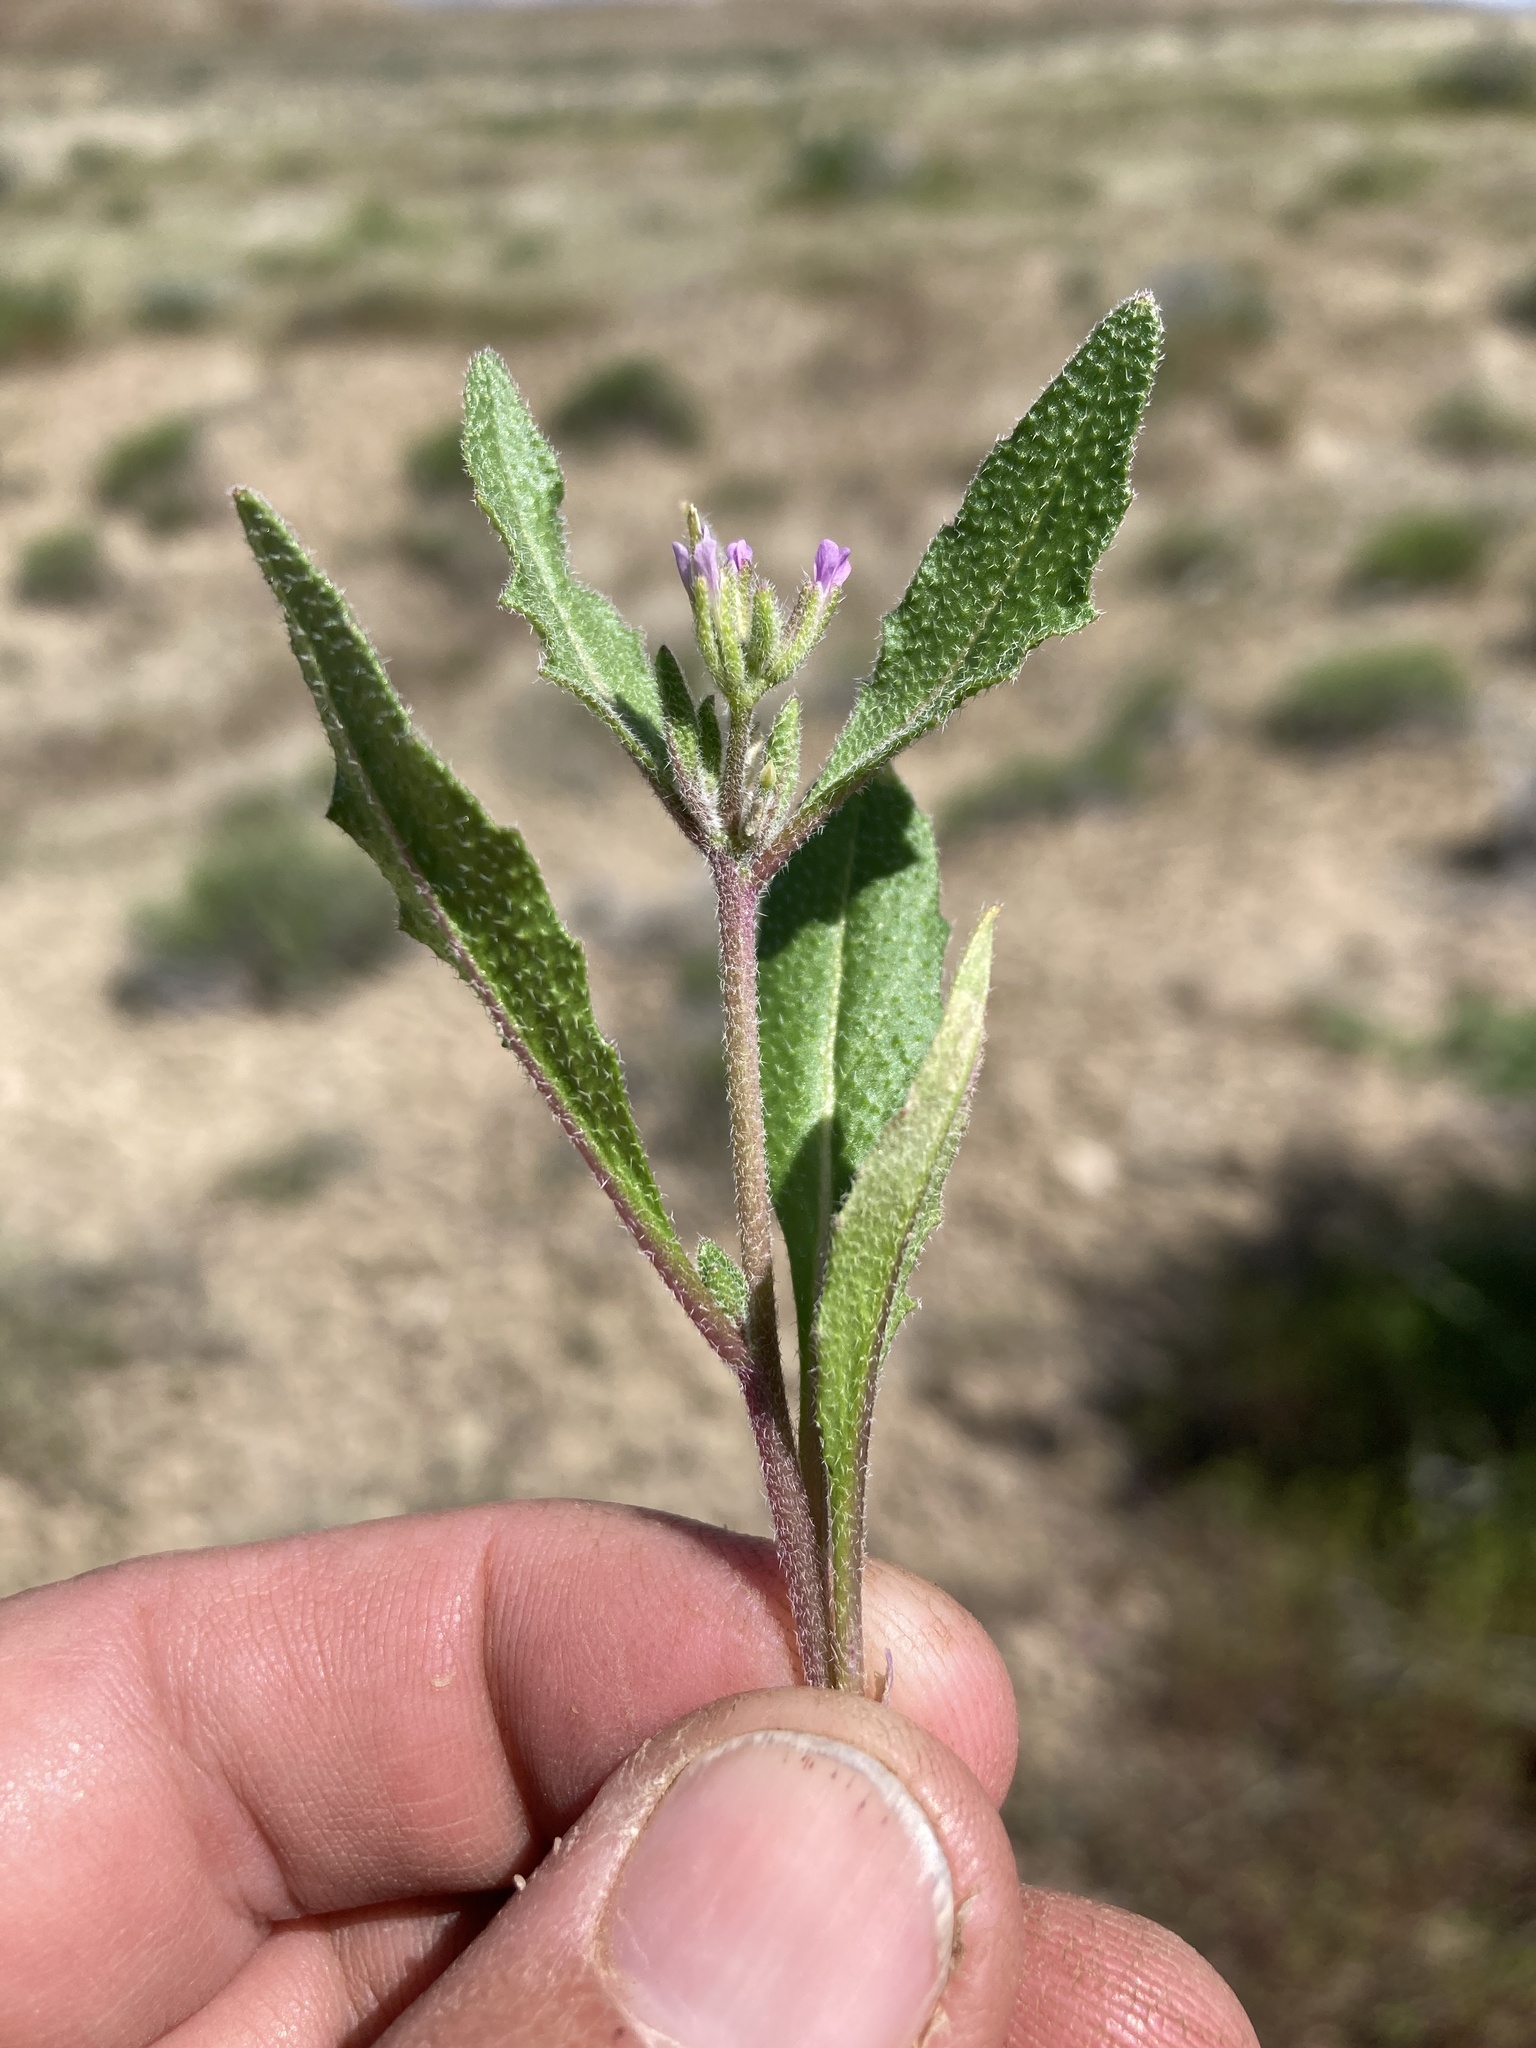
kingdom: Plantae
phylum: Tracheophyta
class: Magnoliopsida
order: Brassicales
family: Brassicaceae
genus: Strigosella
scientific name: Strigosella africana
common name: African mustard
